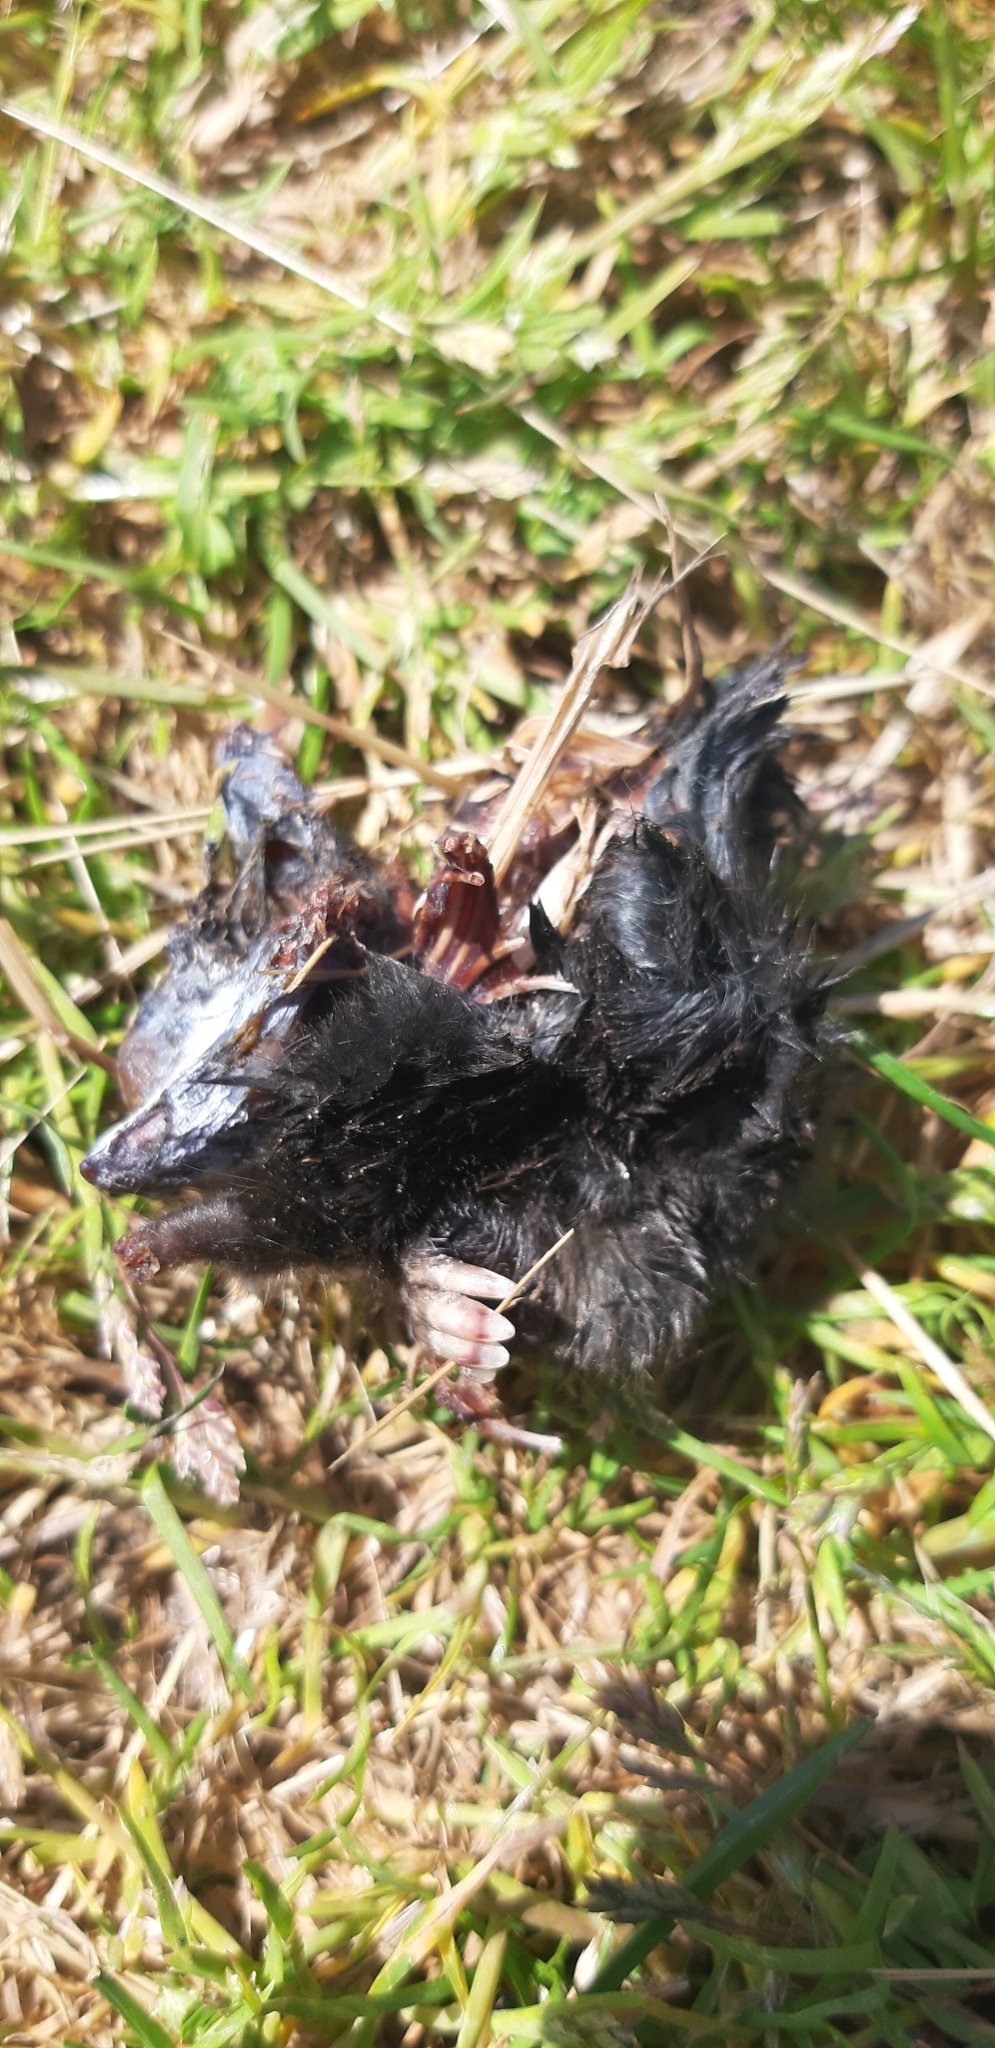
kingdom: Animalia
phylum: Chordata
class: Mammalia
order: Soricomorpha
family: Talpidae
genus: Talpa
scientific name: Talpa
